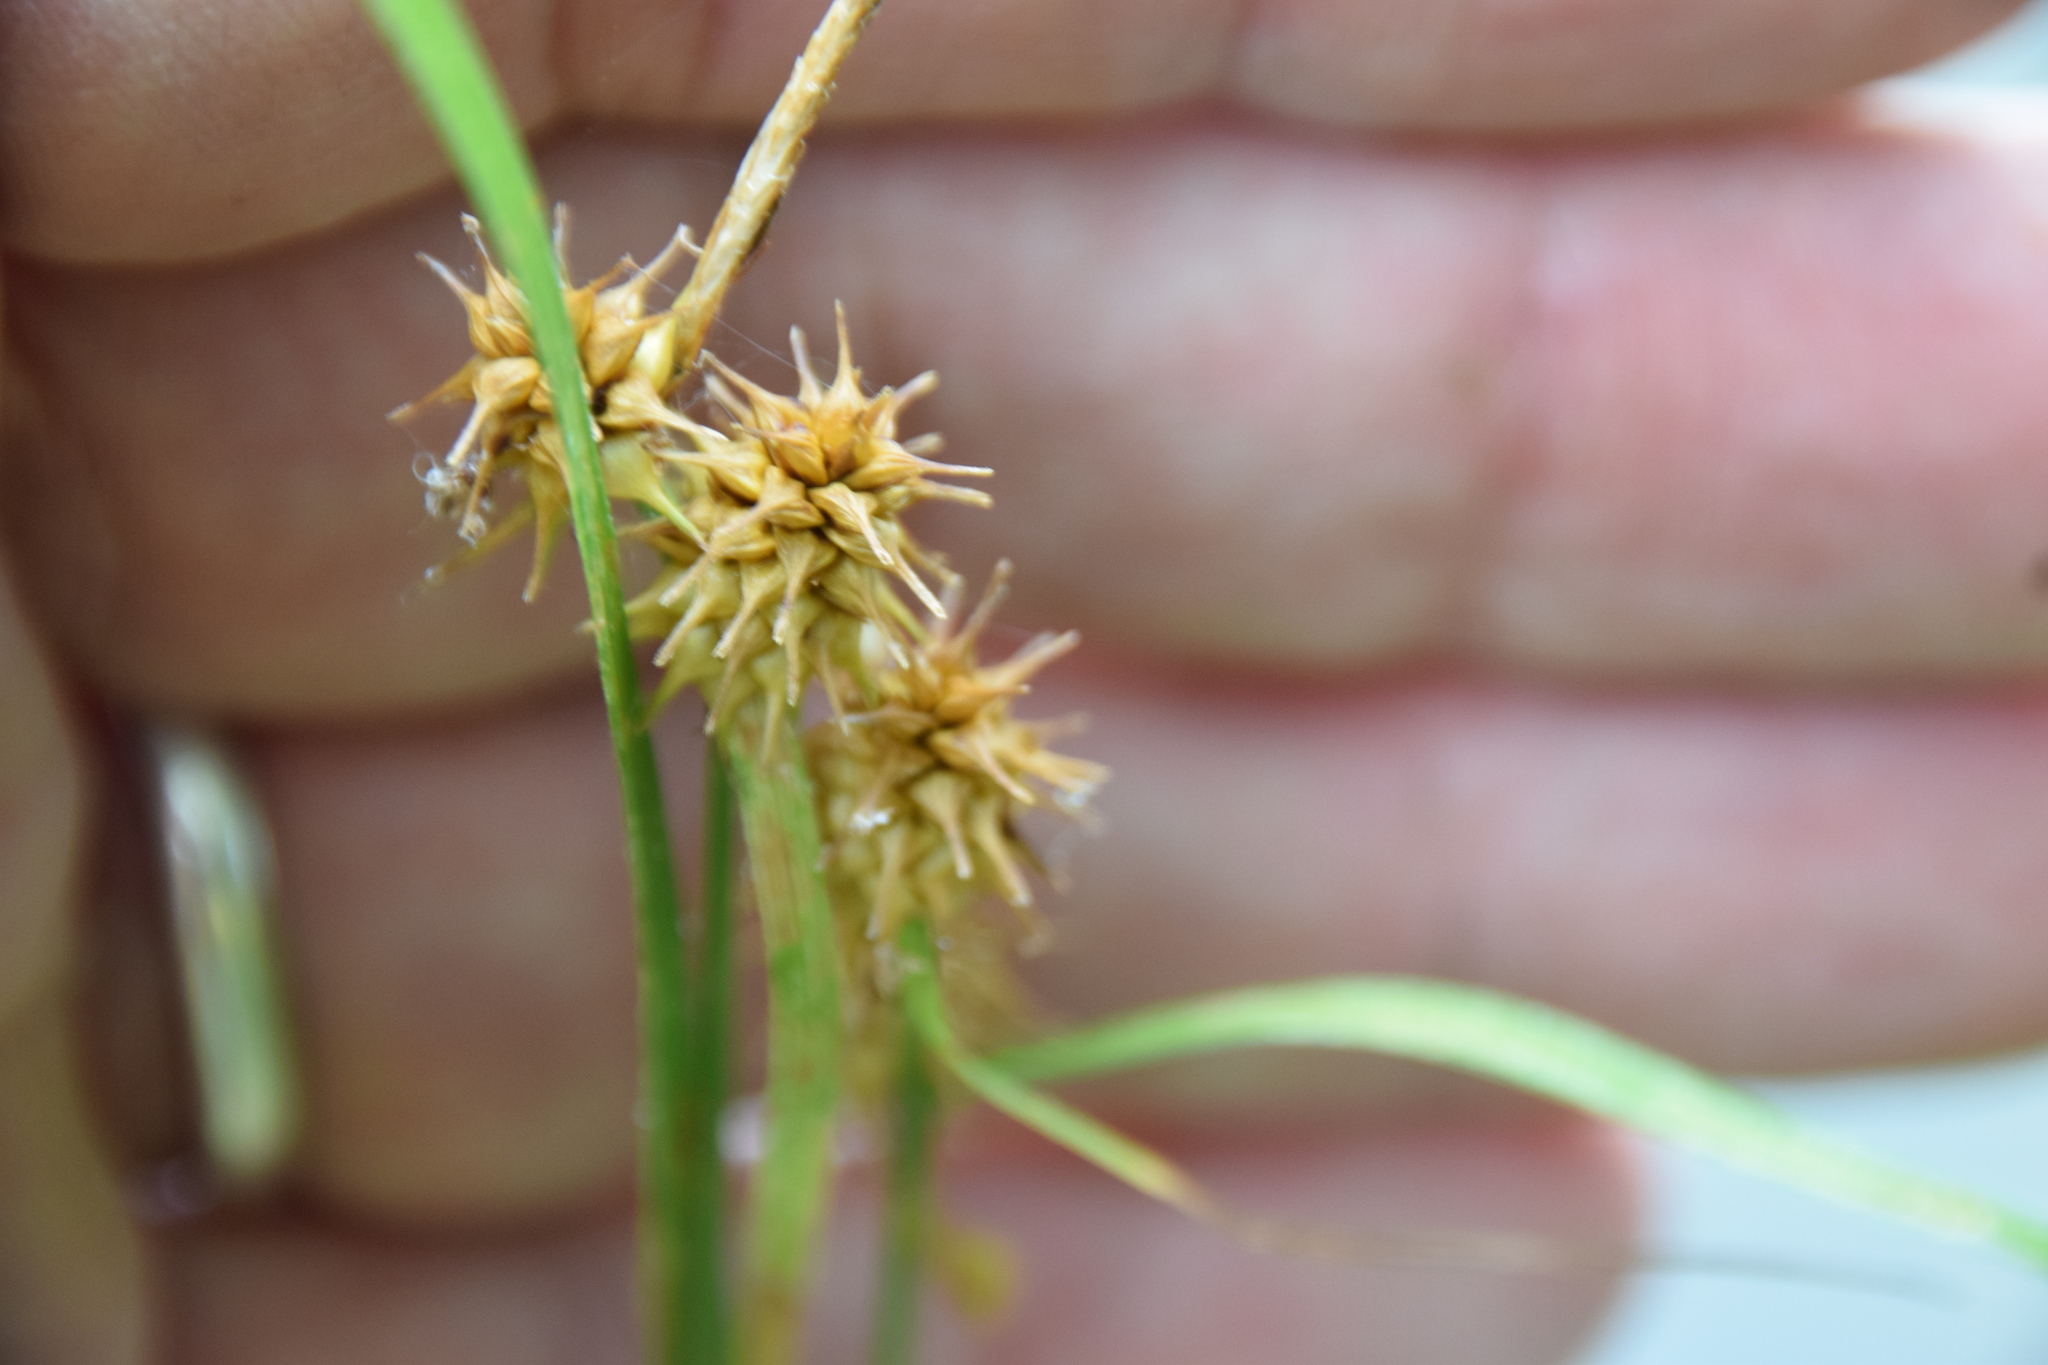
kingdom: Plantae
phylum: Tracheophyta
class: Liliopsida
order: Poales
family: Cyperaceae
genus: Carex
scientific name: Carex flava
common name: Large yellow-sedge
